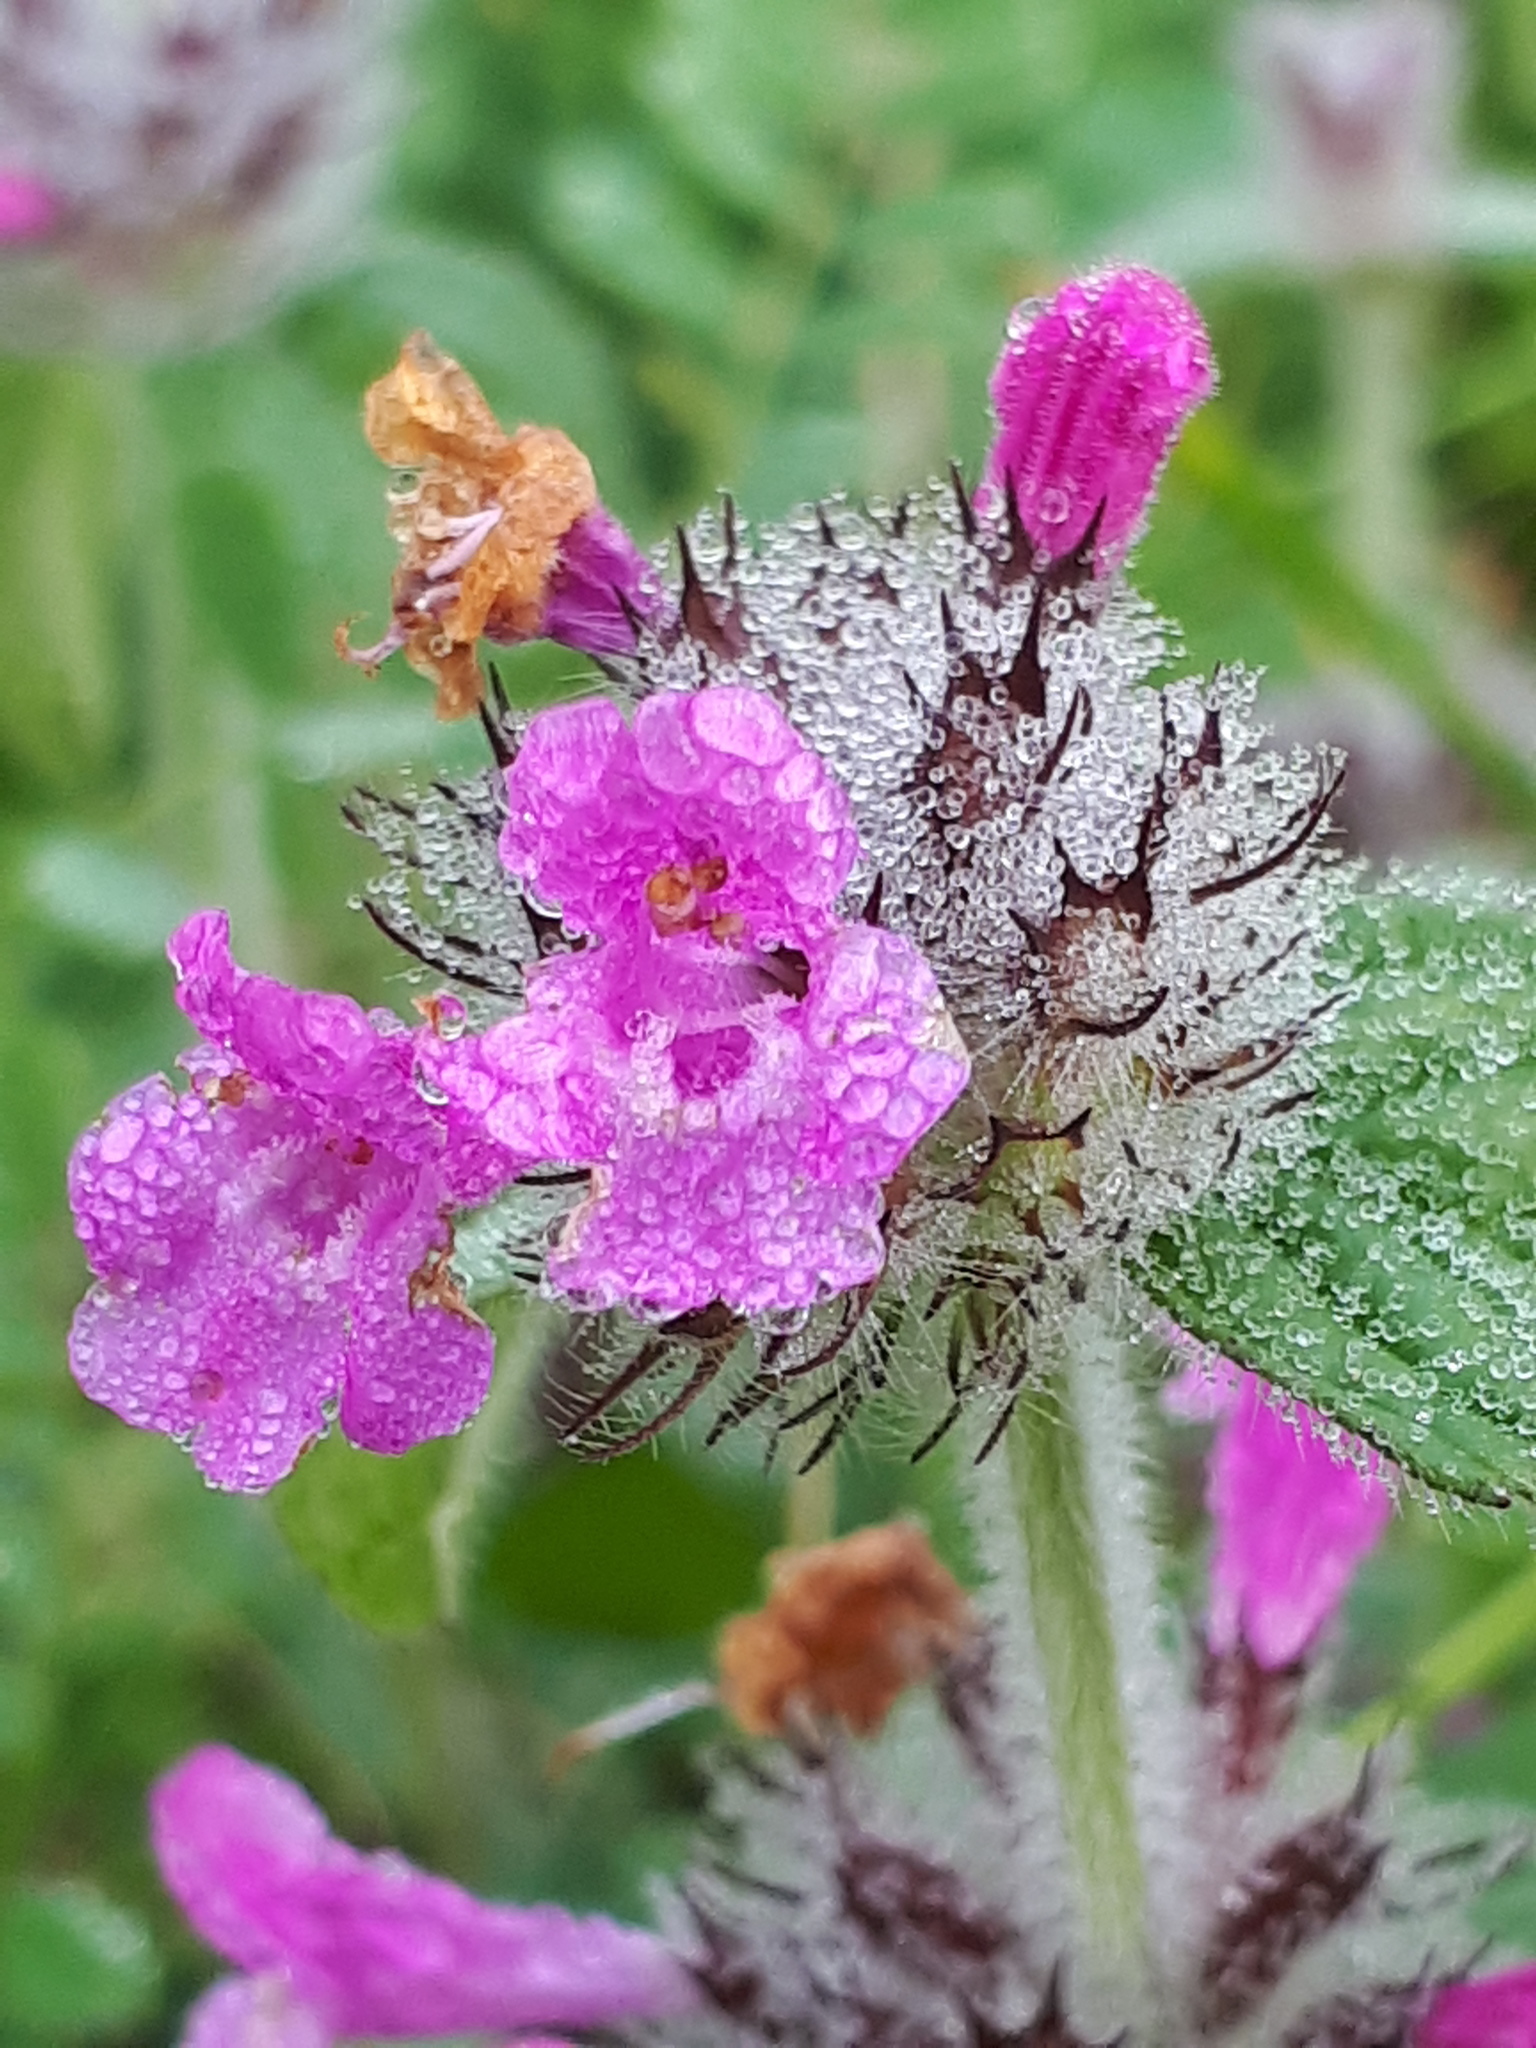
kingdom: Plantae
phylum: Tracheophyta
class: Magnoliopsida
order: Lamiales
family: Lamiaceae
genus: Clinopodium
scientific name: Clinopodium vulgare
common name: Wild basil
